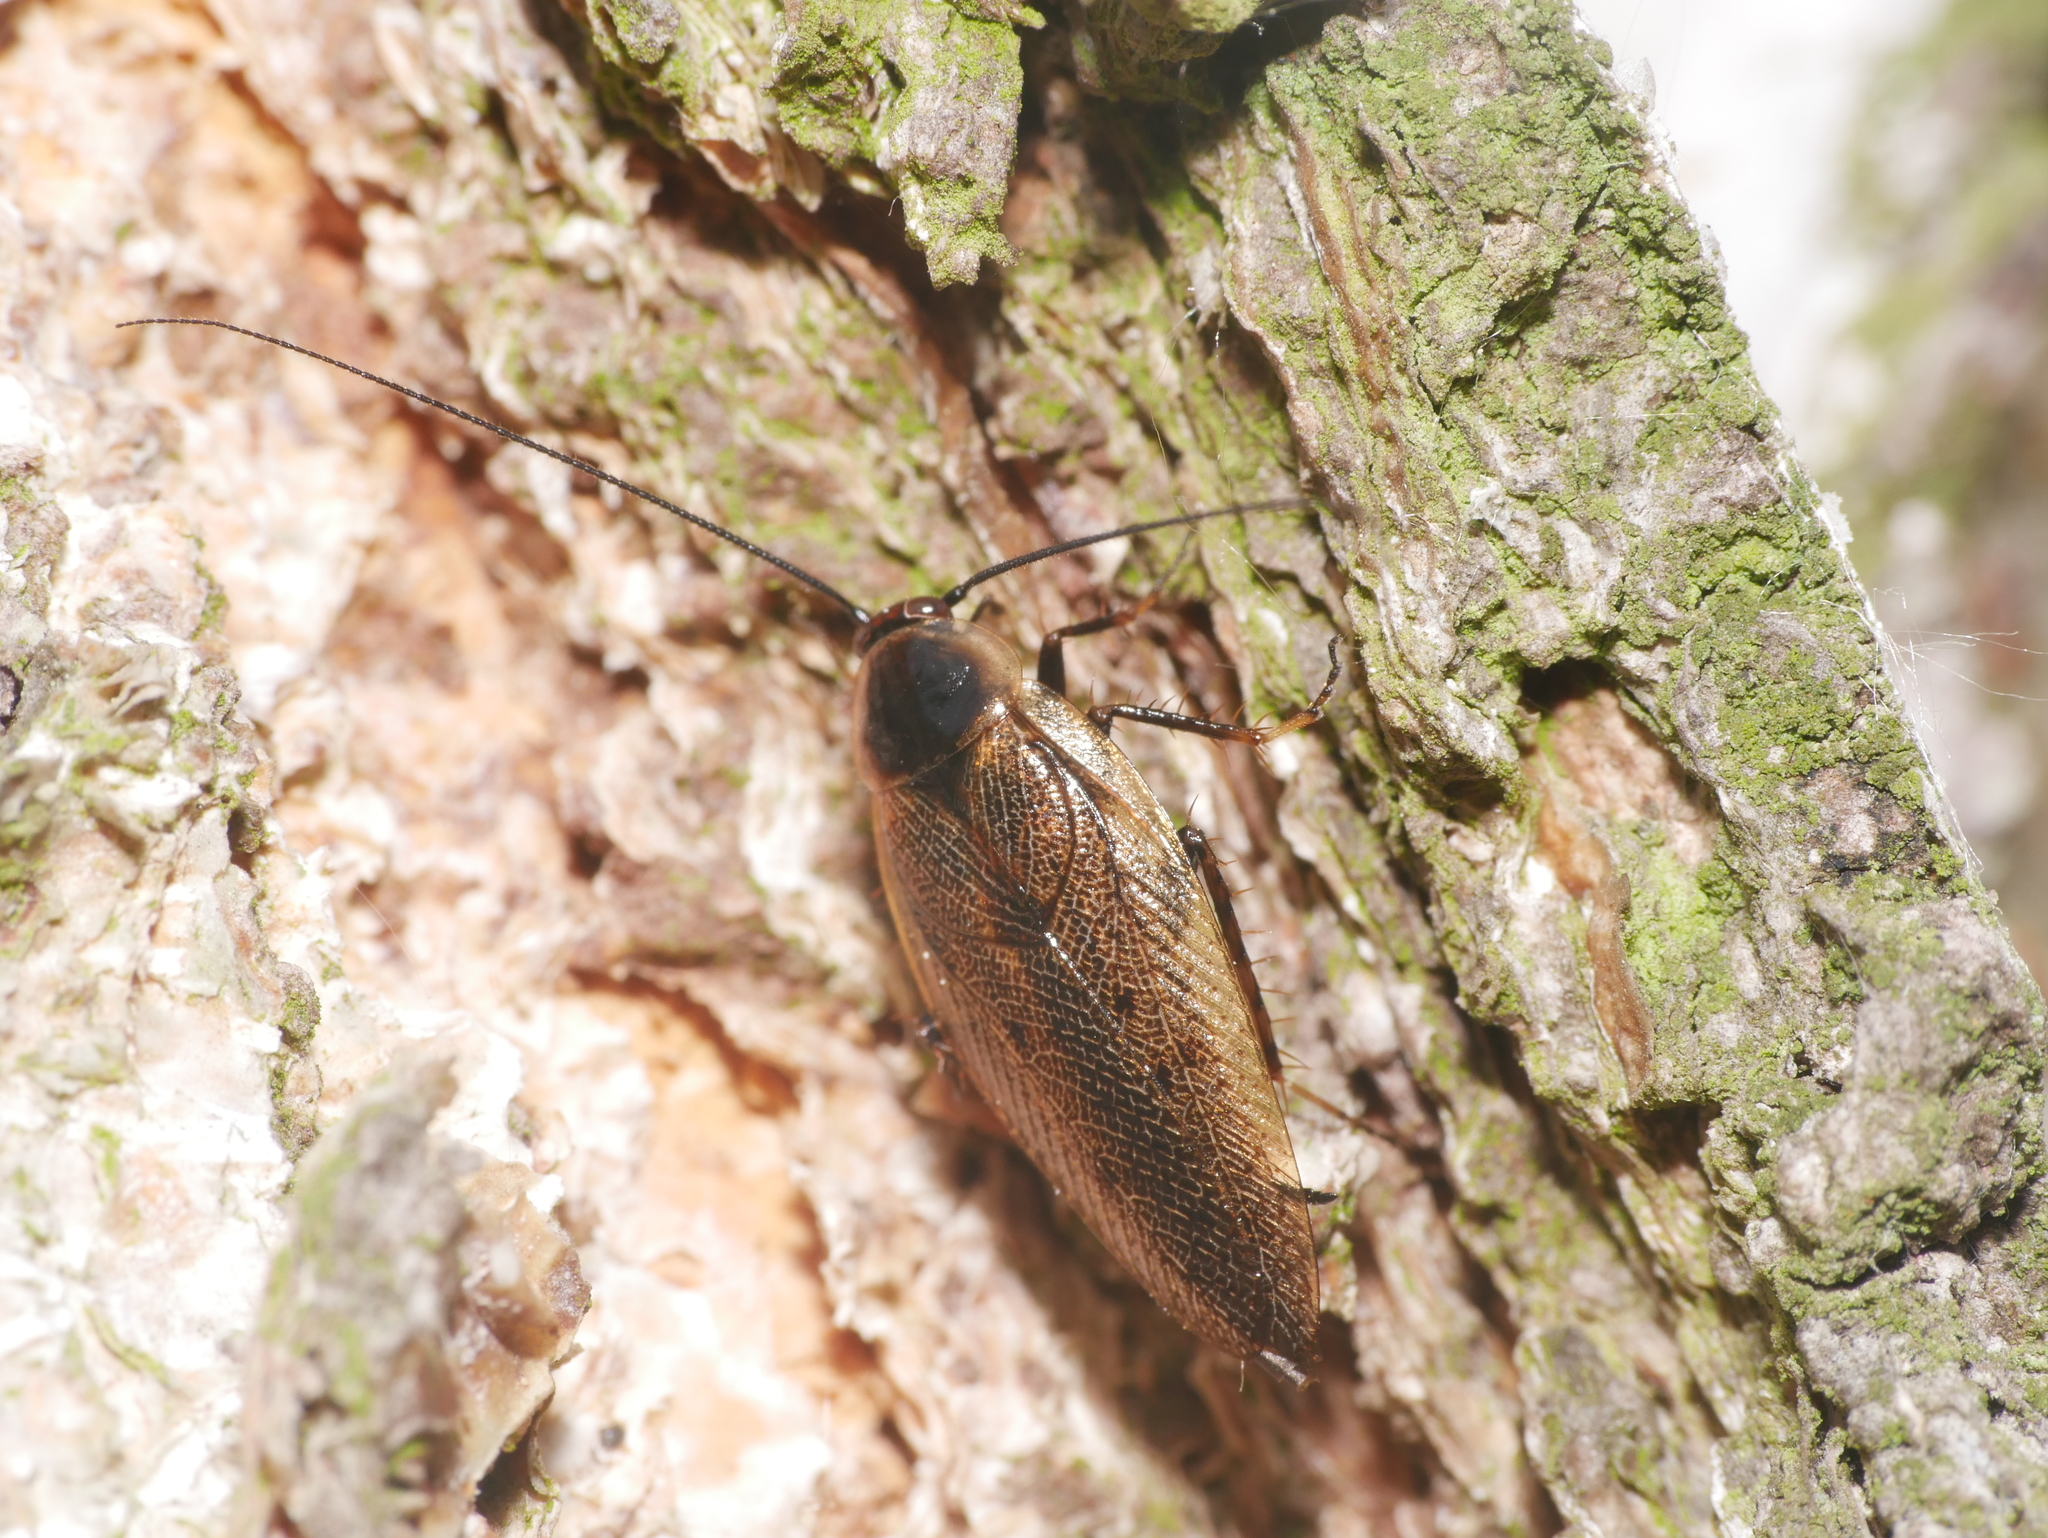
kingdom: Animalia
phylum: Arthropoda
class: Insecta
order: Blattodea
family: Ectobiidae
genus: Ectobius
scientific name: Ectobius lapponicus
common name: Dusky cockroach
